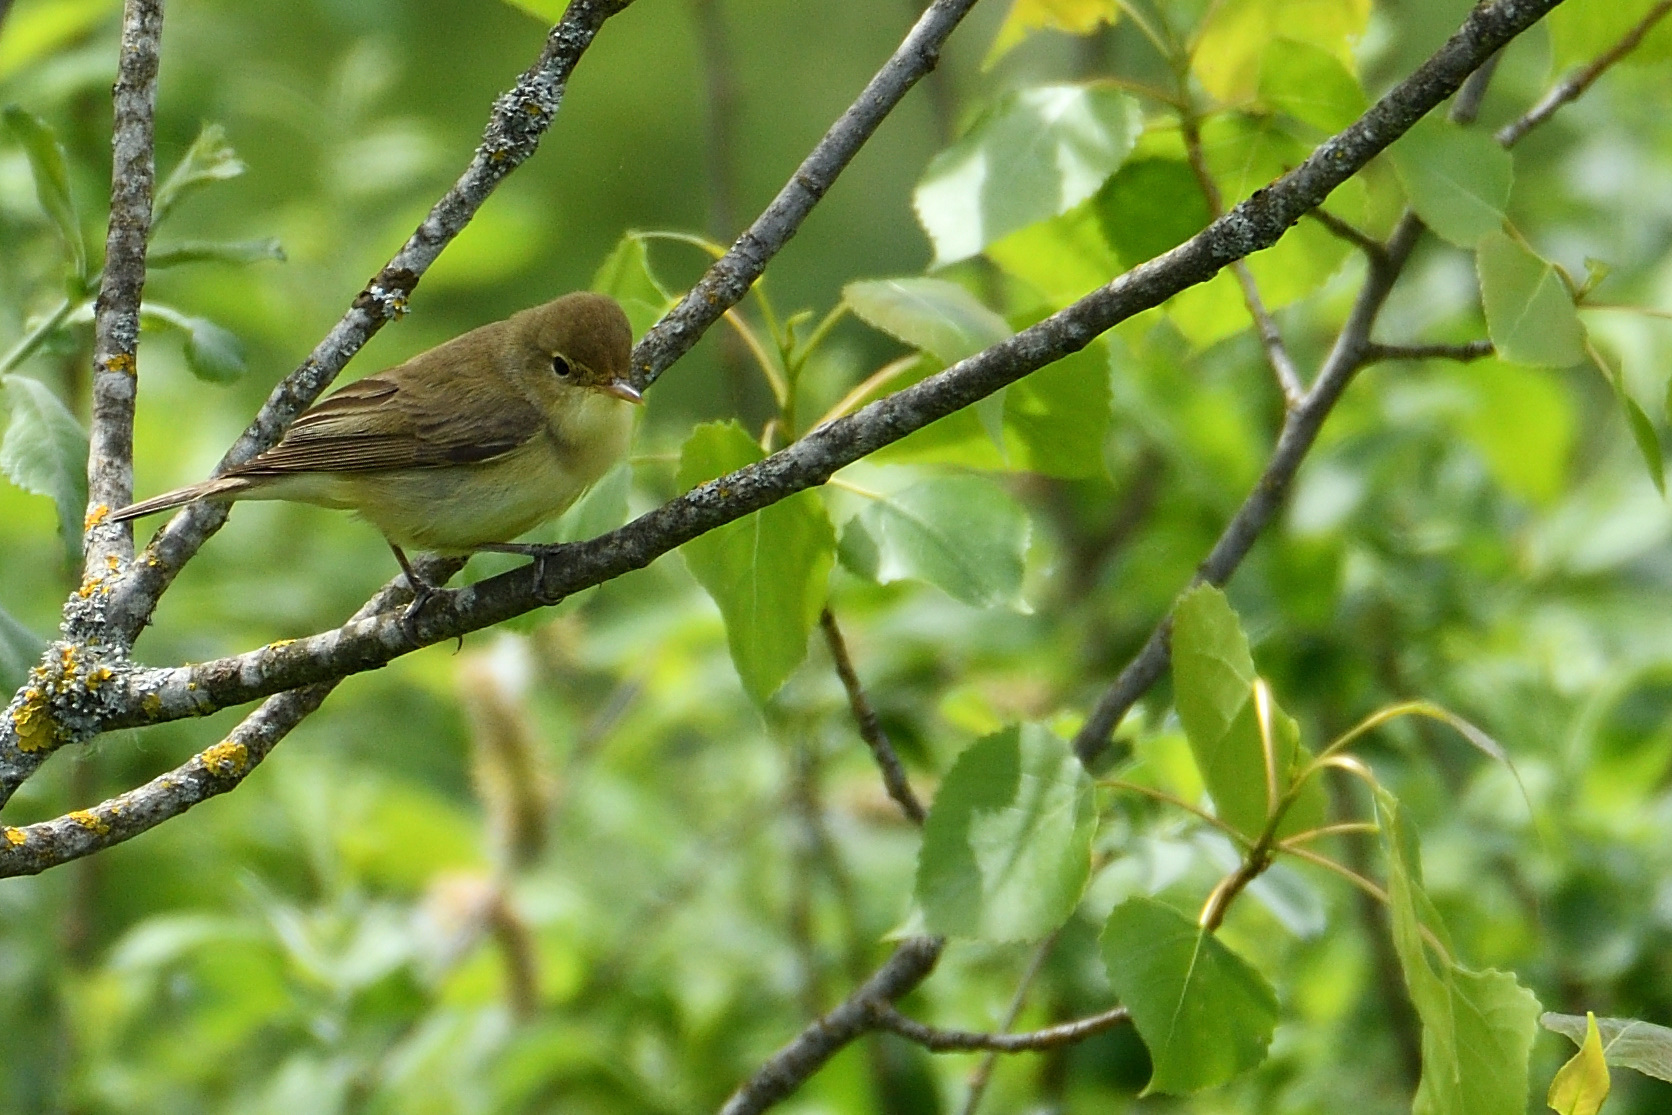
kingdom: Animalia
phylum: Chordata
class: Aves
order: Passeriformes
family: Acrocephalidae
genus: Hippolais
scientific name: Hippolais polyglotta
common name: Melodious warbler
